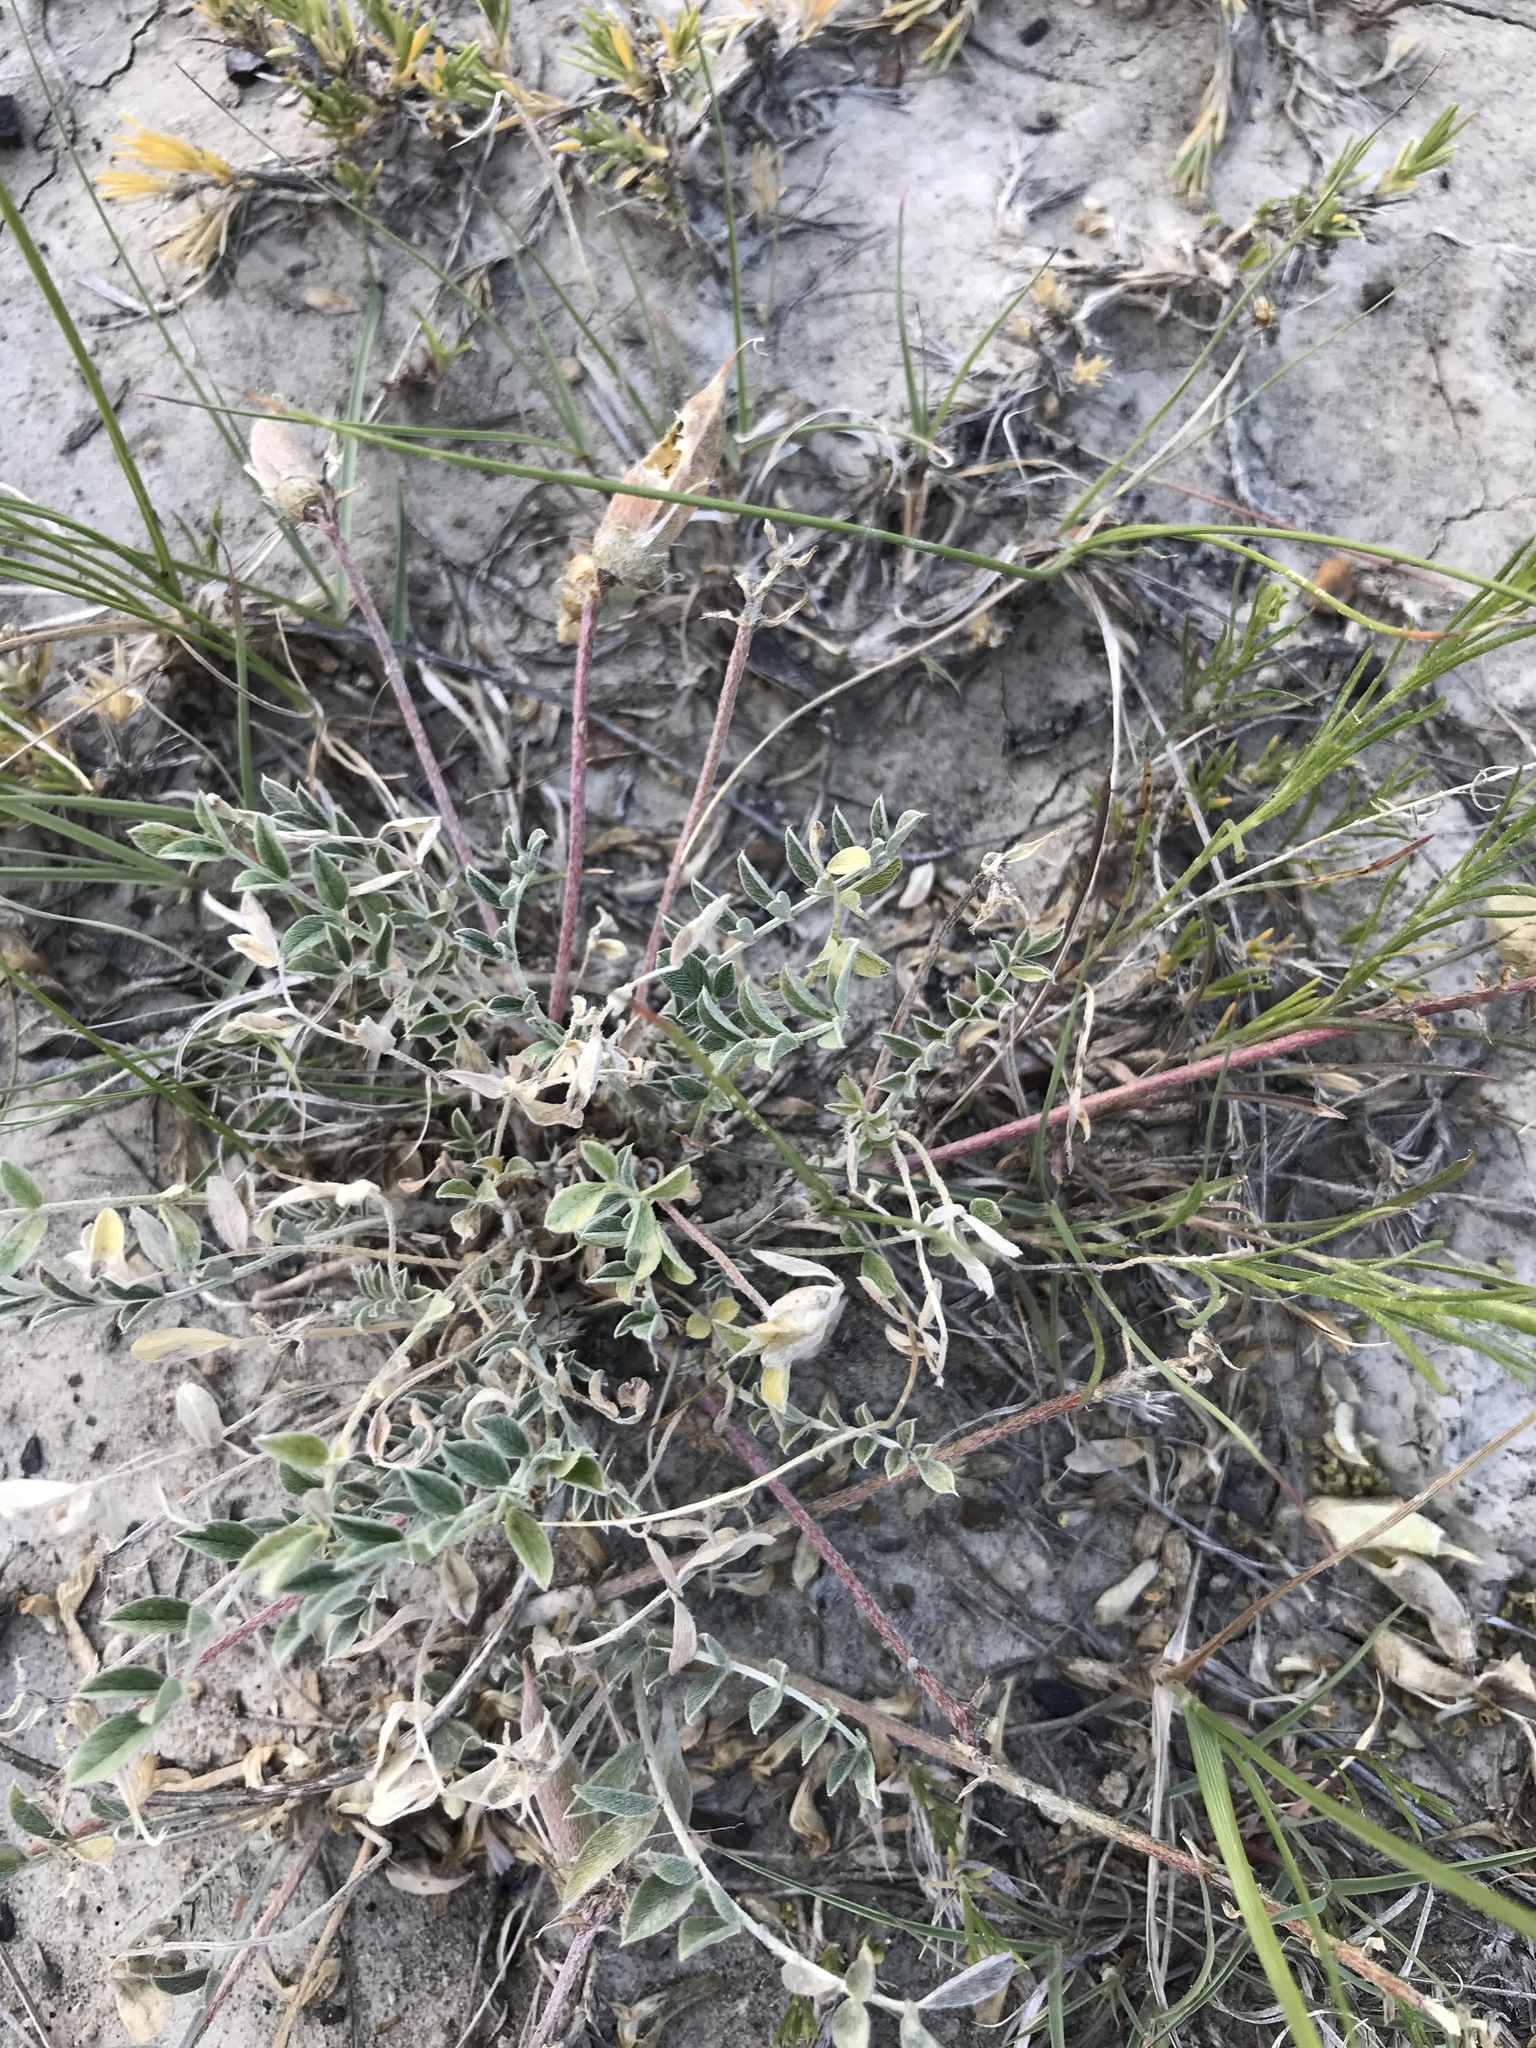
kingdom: Plantae
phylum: Tracheophyta
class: Magnoliopsida
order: Fabales
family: Fabaceae
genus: Astragalus
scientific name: Astragalus missouriensis
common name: Missouri milk-vetch
